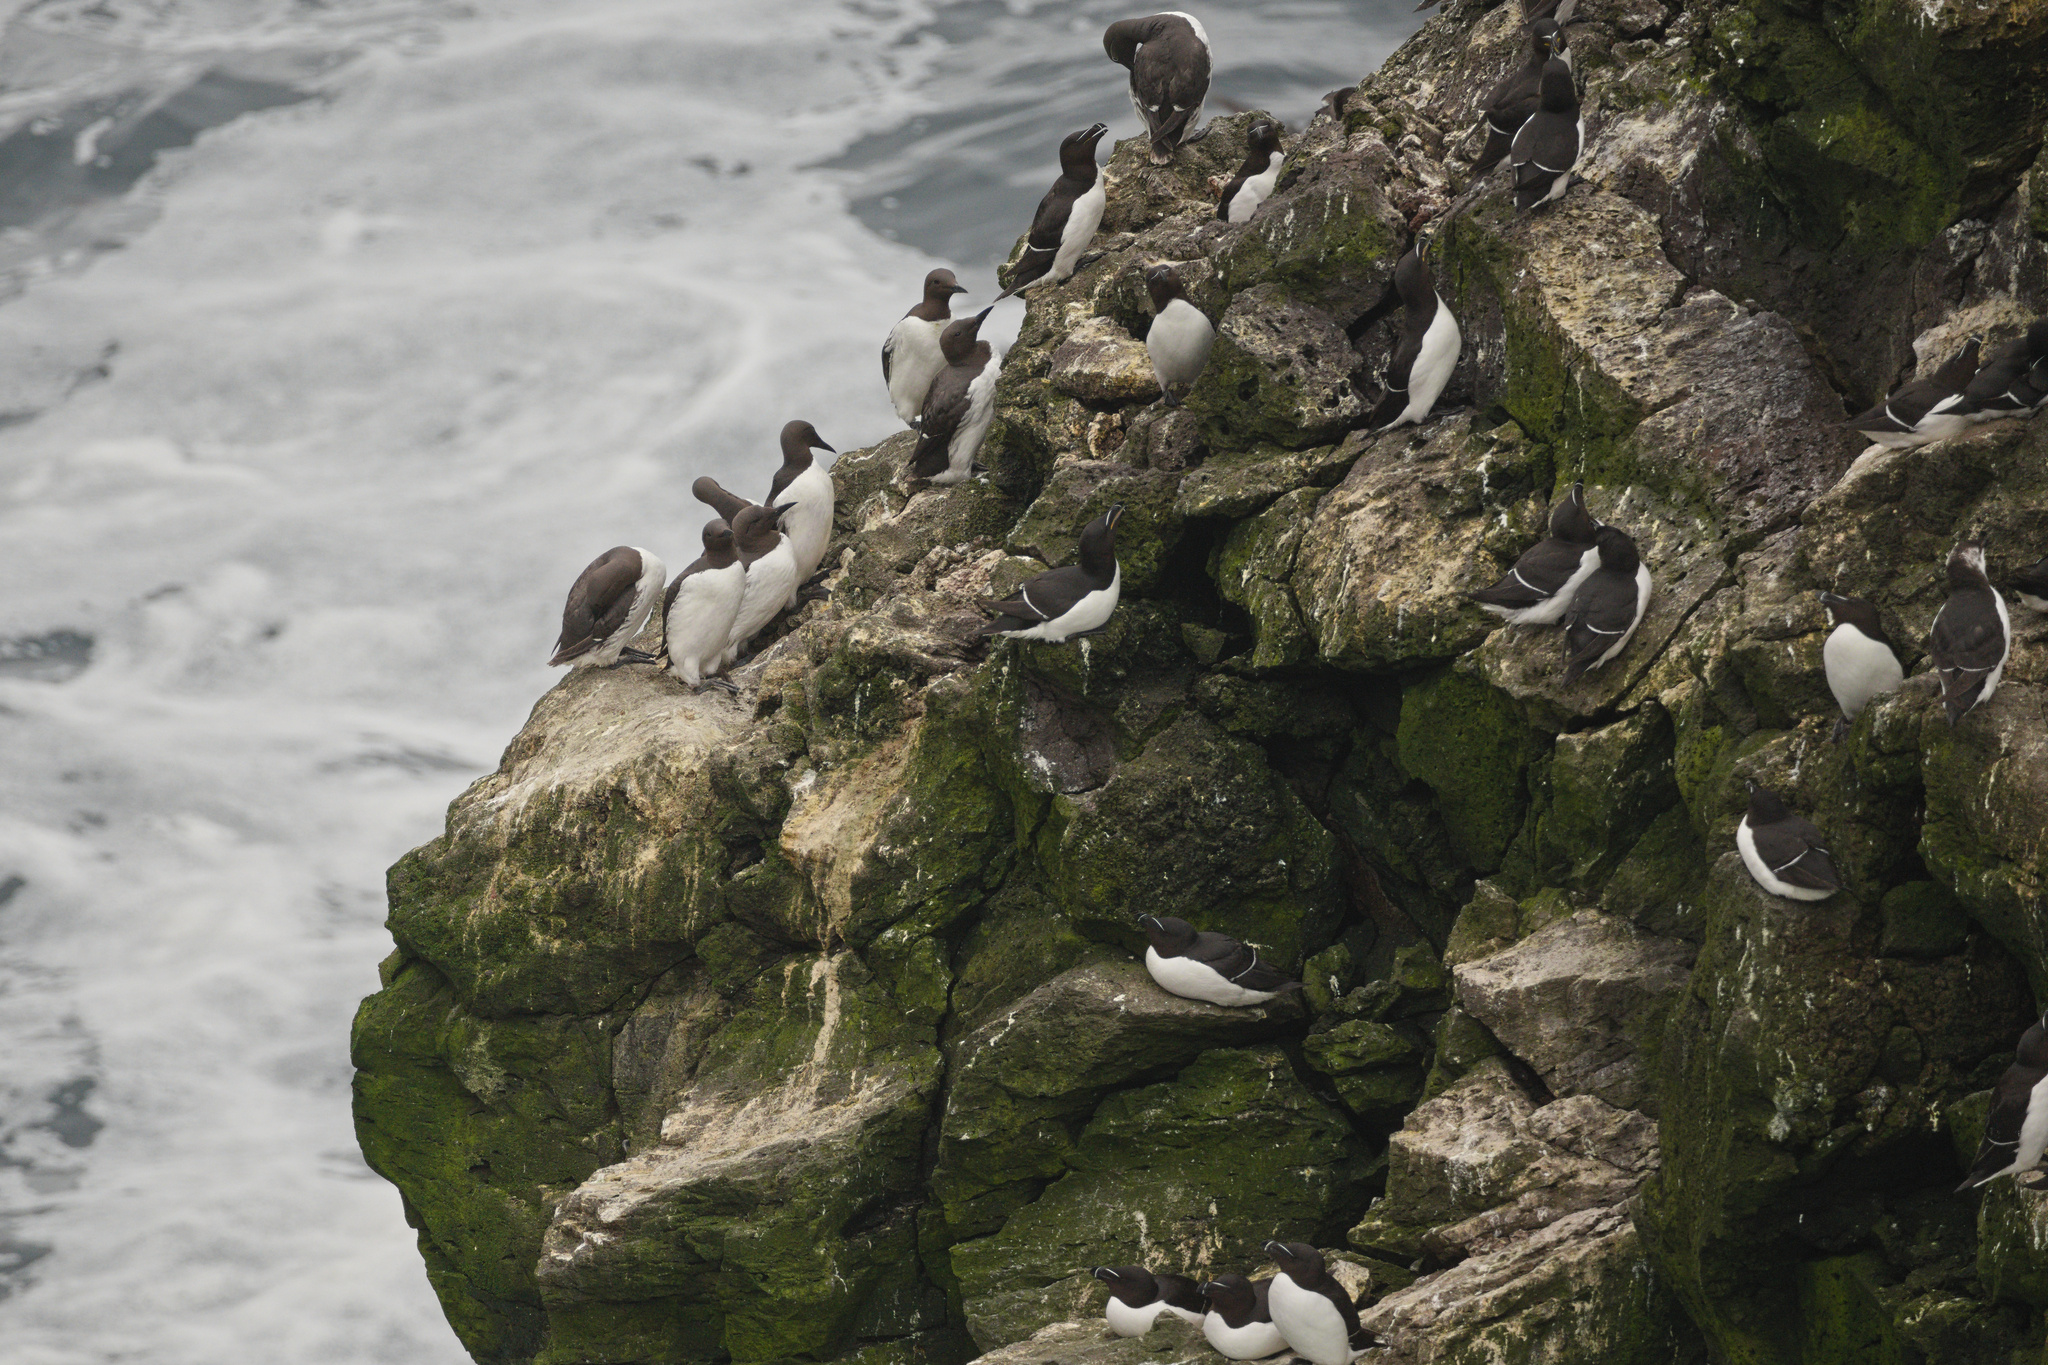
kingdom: Animalia
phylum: Chordata
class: Aves
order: Charadriiformes
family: Alcidae
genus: Uria
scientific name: Uria aalge
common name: Common murre
